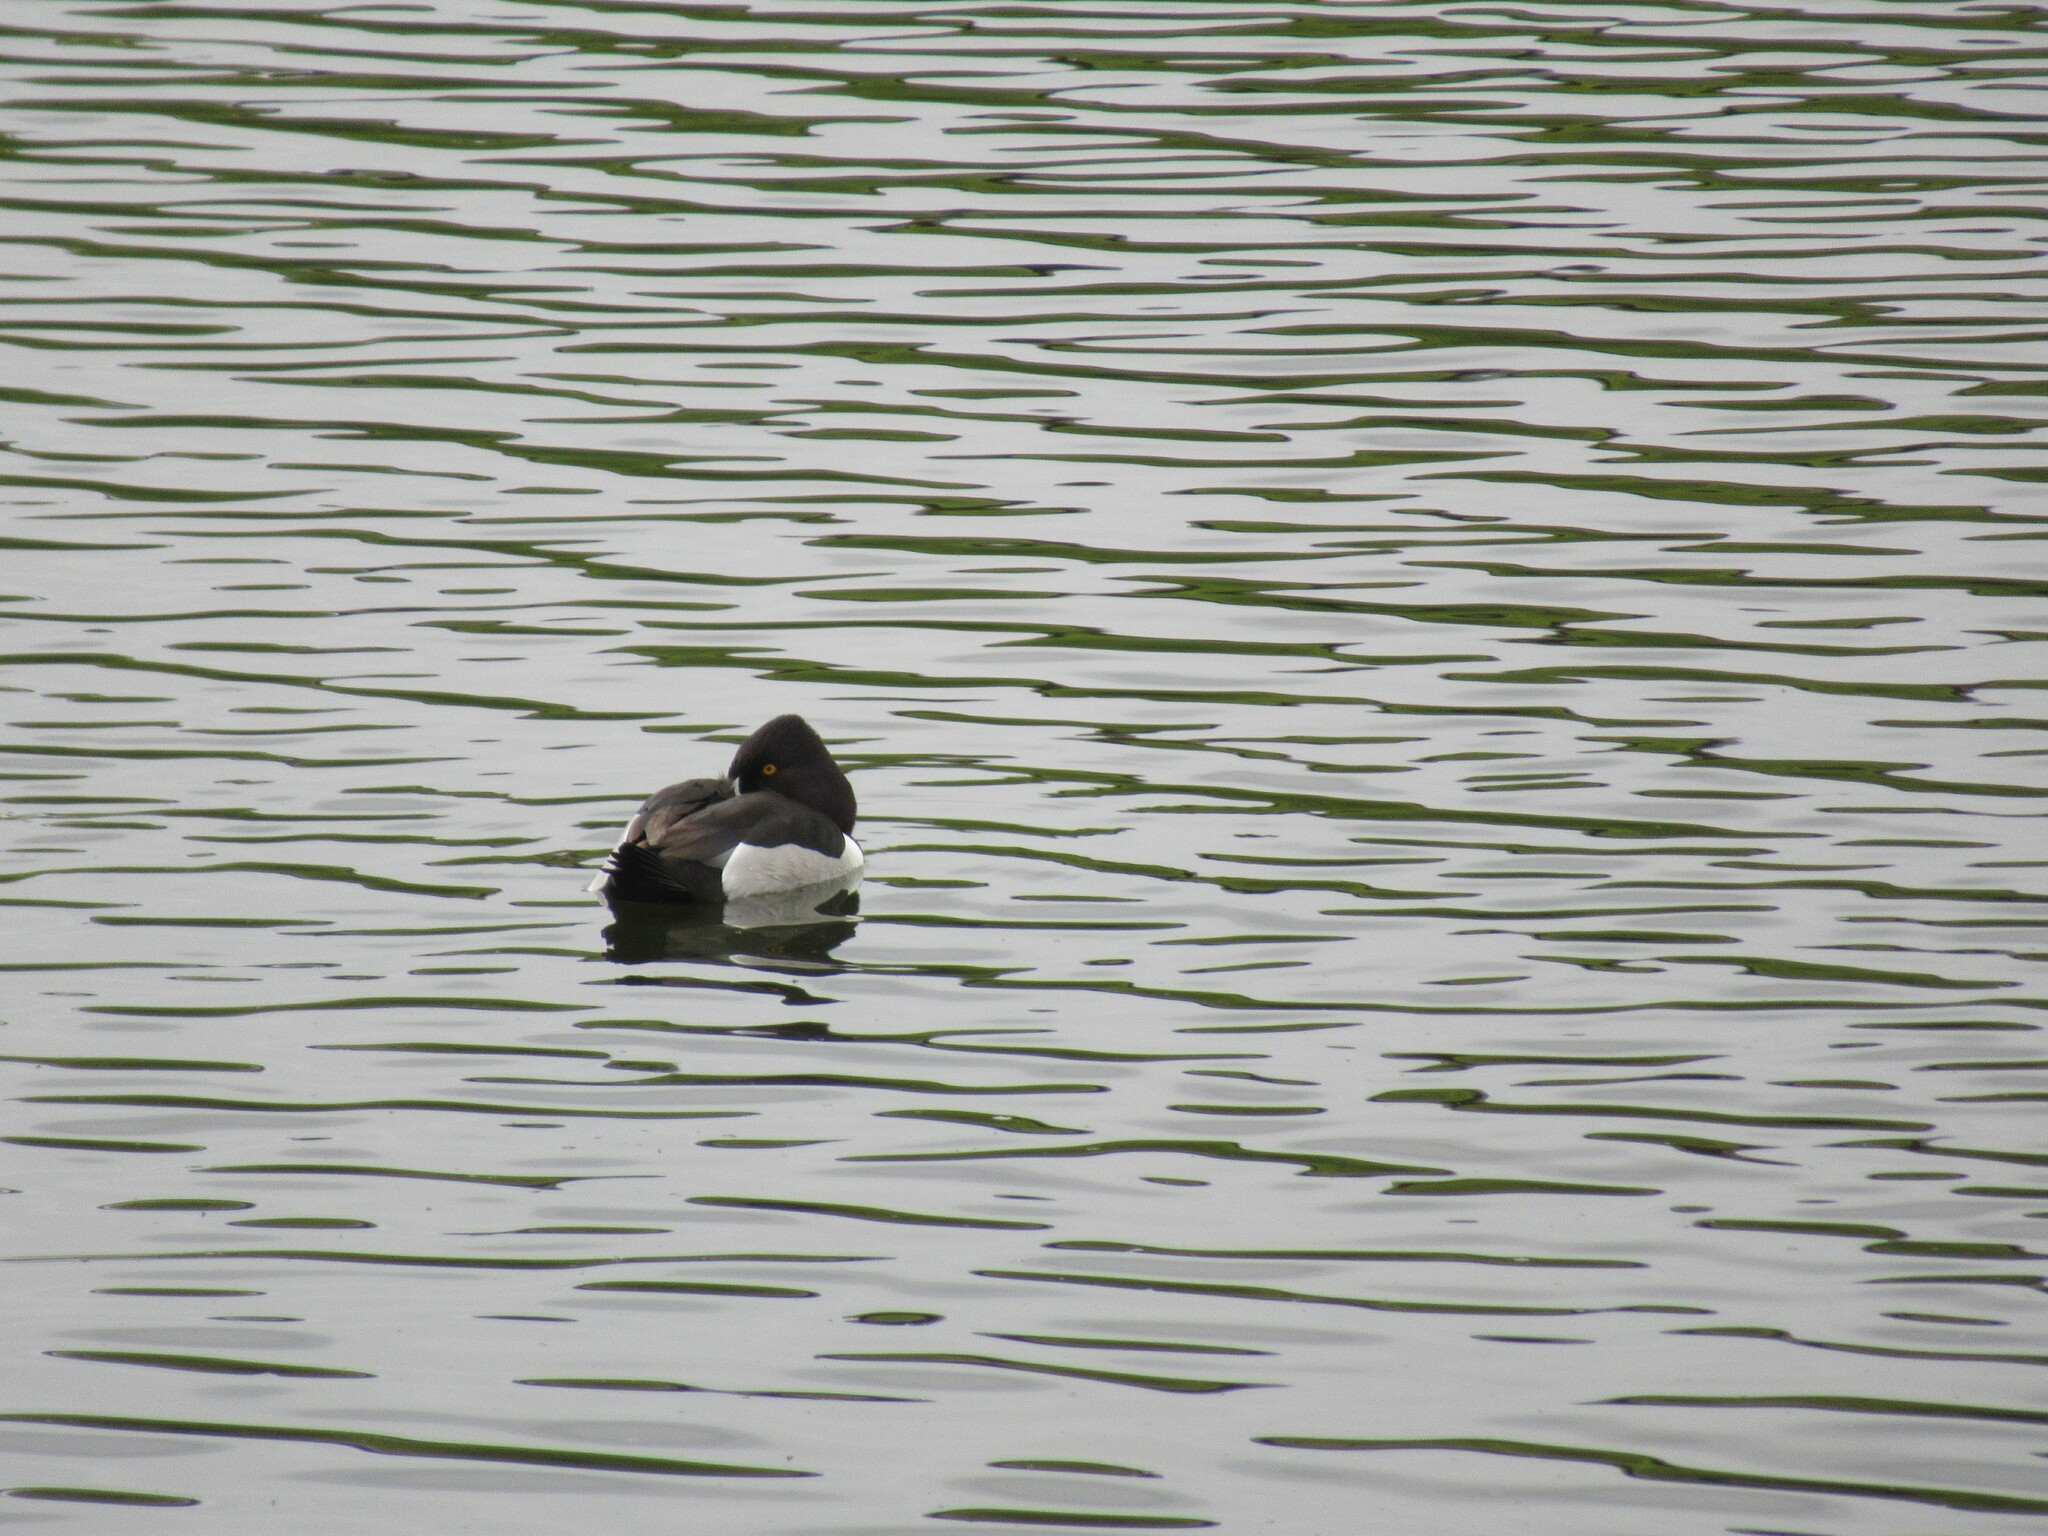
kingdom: Animalia
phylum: Chordata
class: Aves
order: Anseriformes
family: Anatidae
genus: Aythya
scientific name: Aythya collaris
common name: Ring-necked duck
